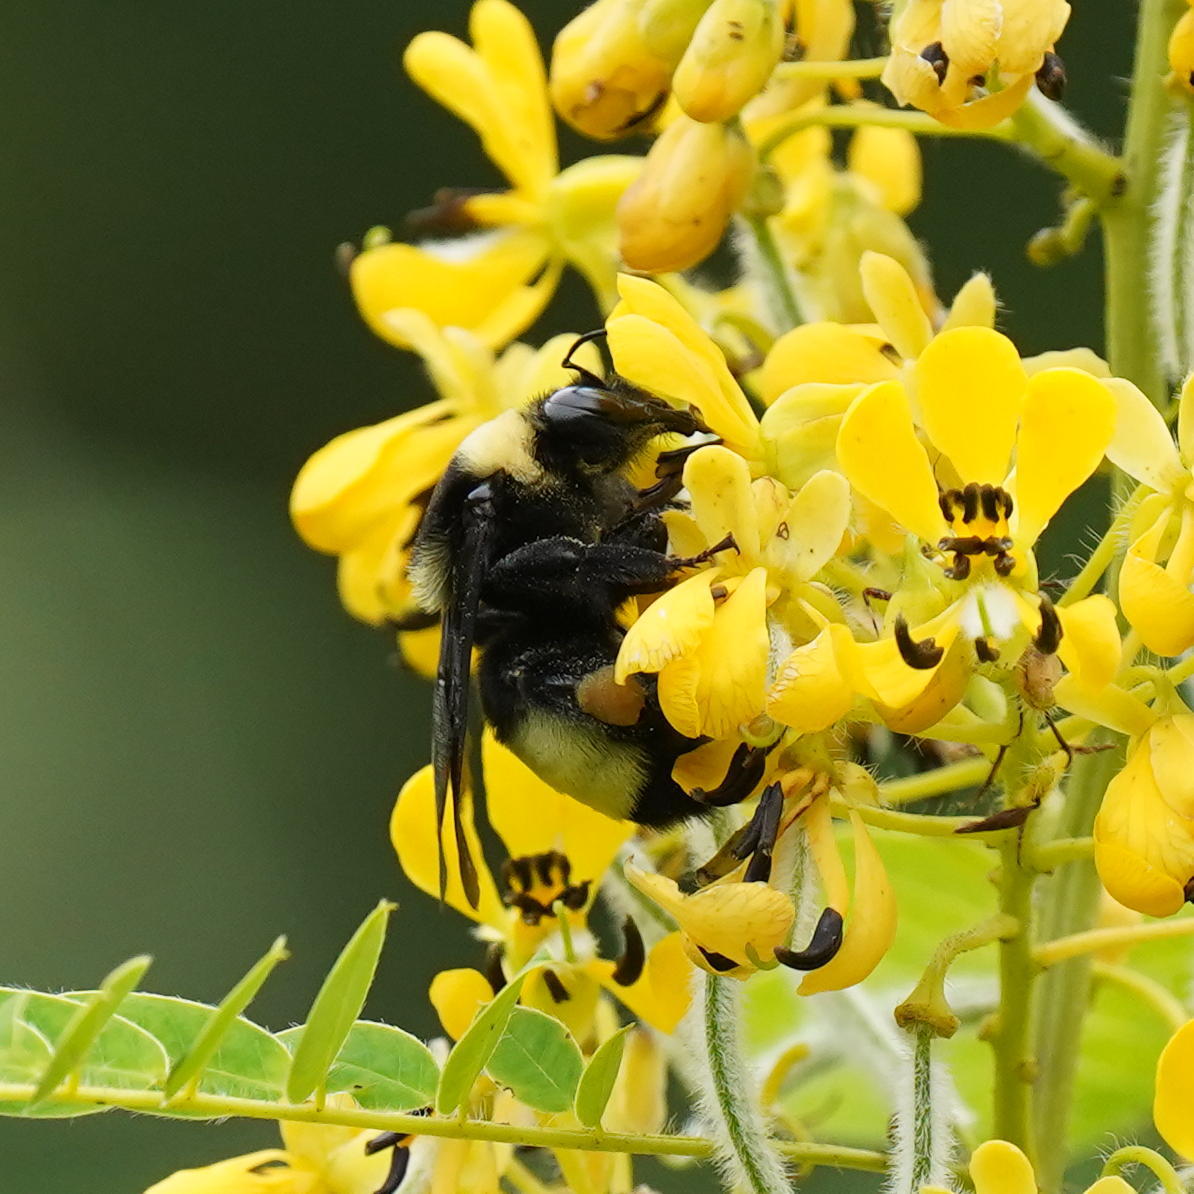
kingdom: Animalia
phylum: Arthropoda
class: Insecta
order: Hymenoptera
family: Apidae
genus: Bombus
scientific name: Bombus auricomus
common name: Black and gold bumble bee
